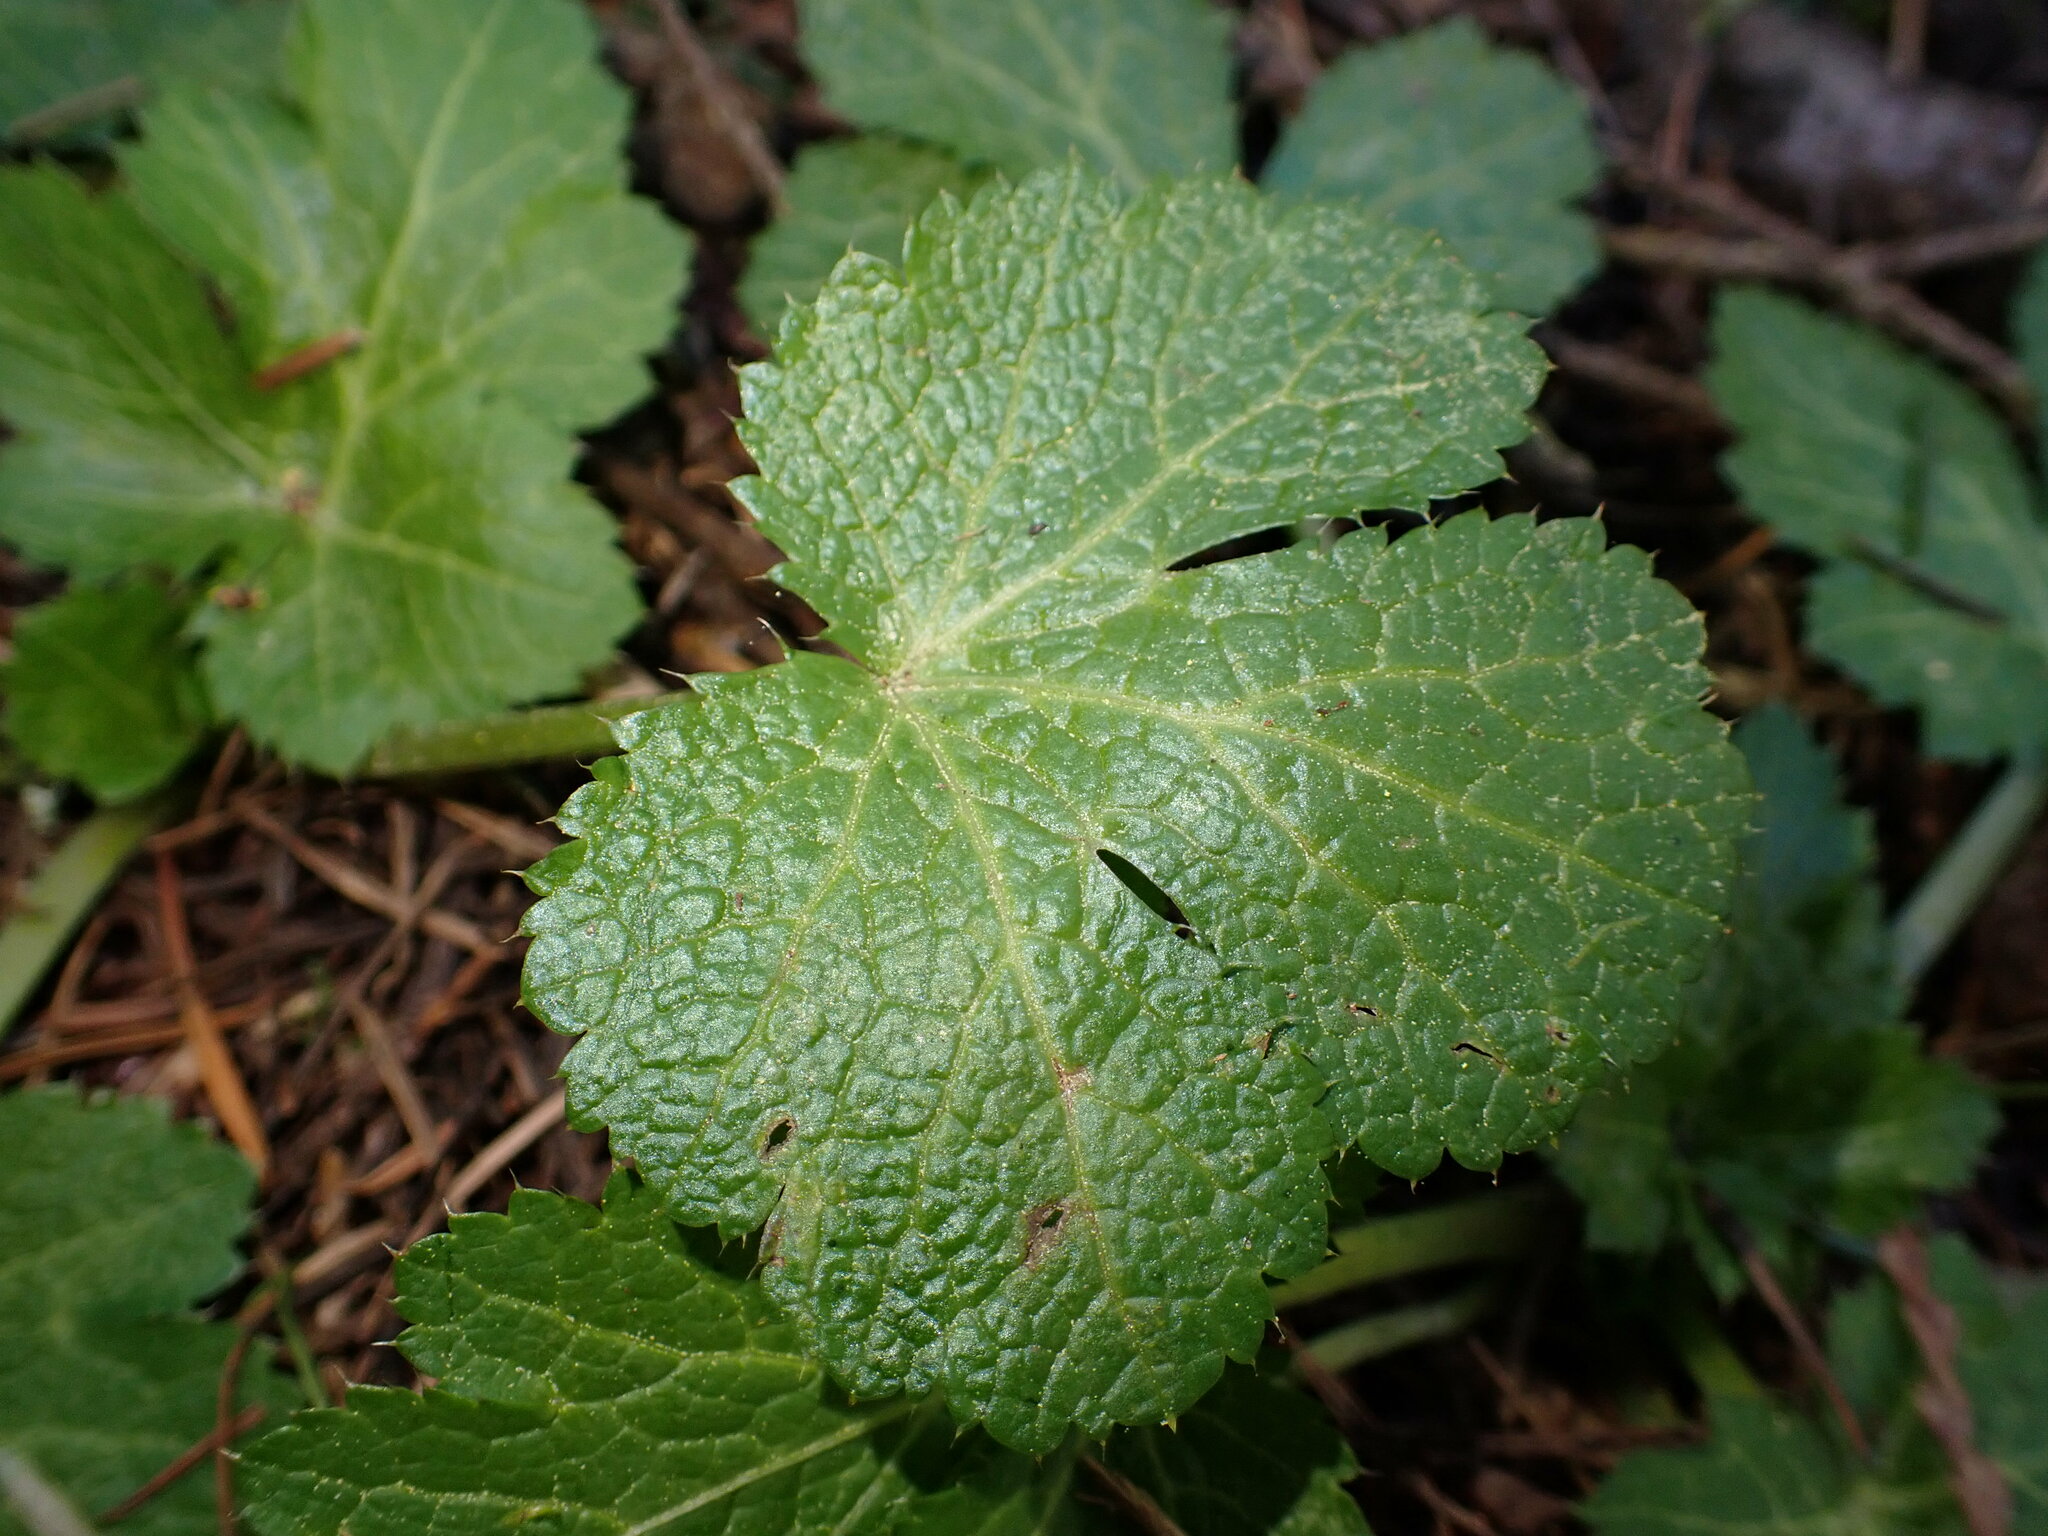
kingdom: Plantae
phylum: Tracheophyta
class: Magnoliopsida
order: Apiales
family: Apiaceae
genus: Sanicula
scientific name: Sanicula crassicaulis
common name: Western snakeroot
